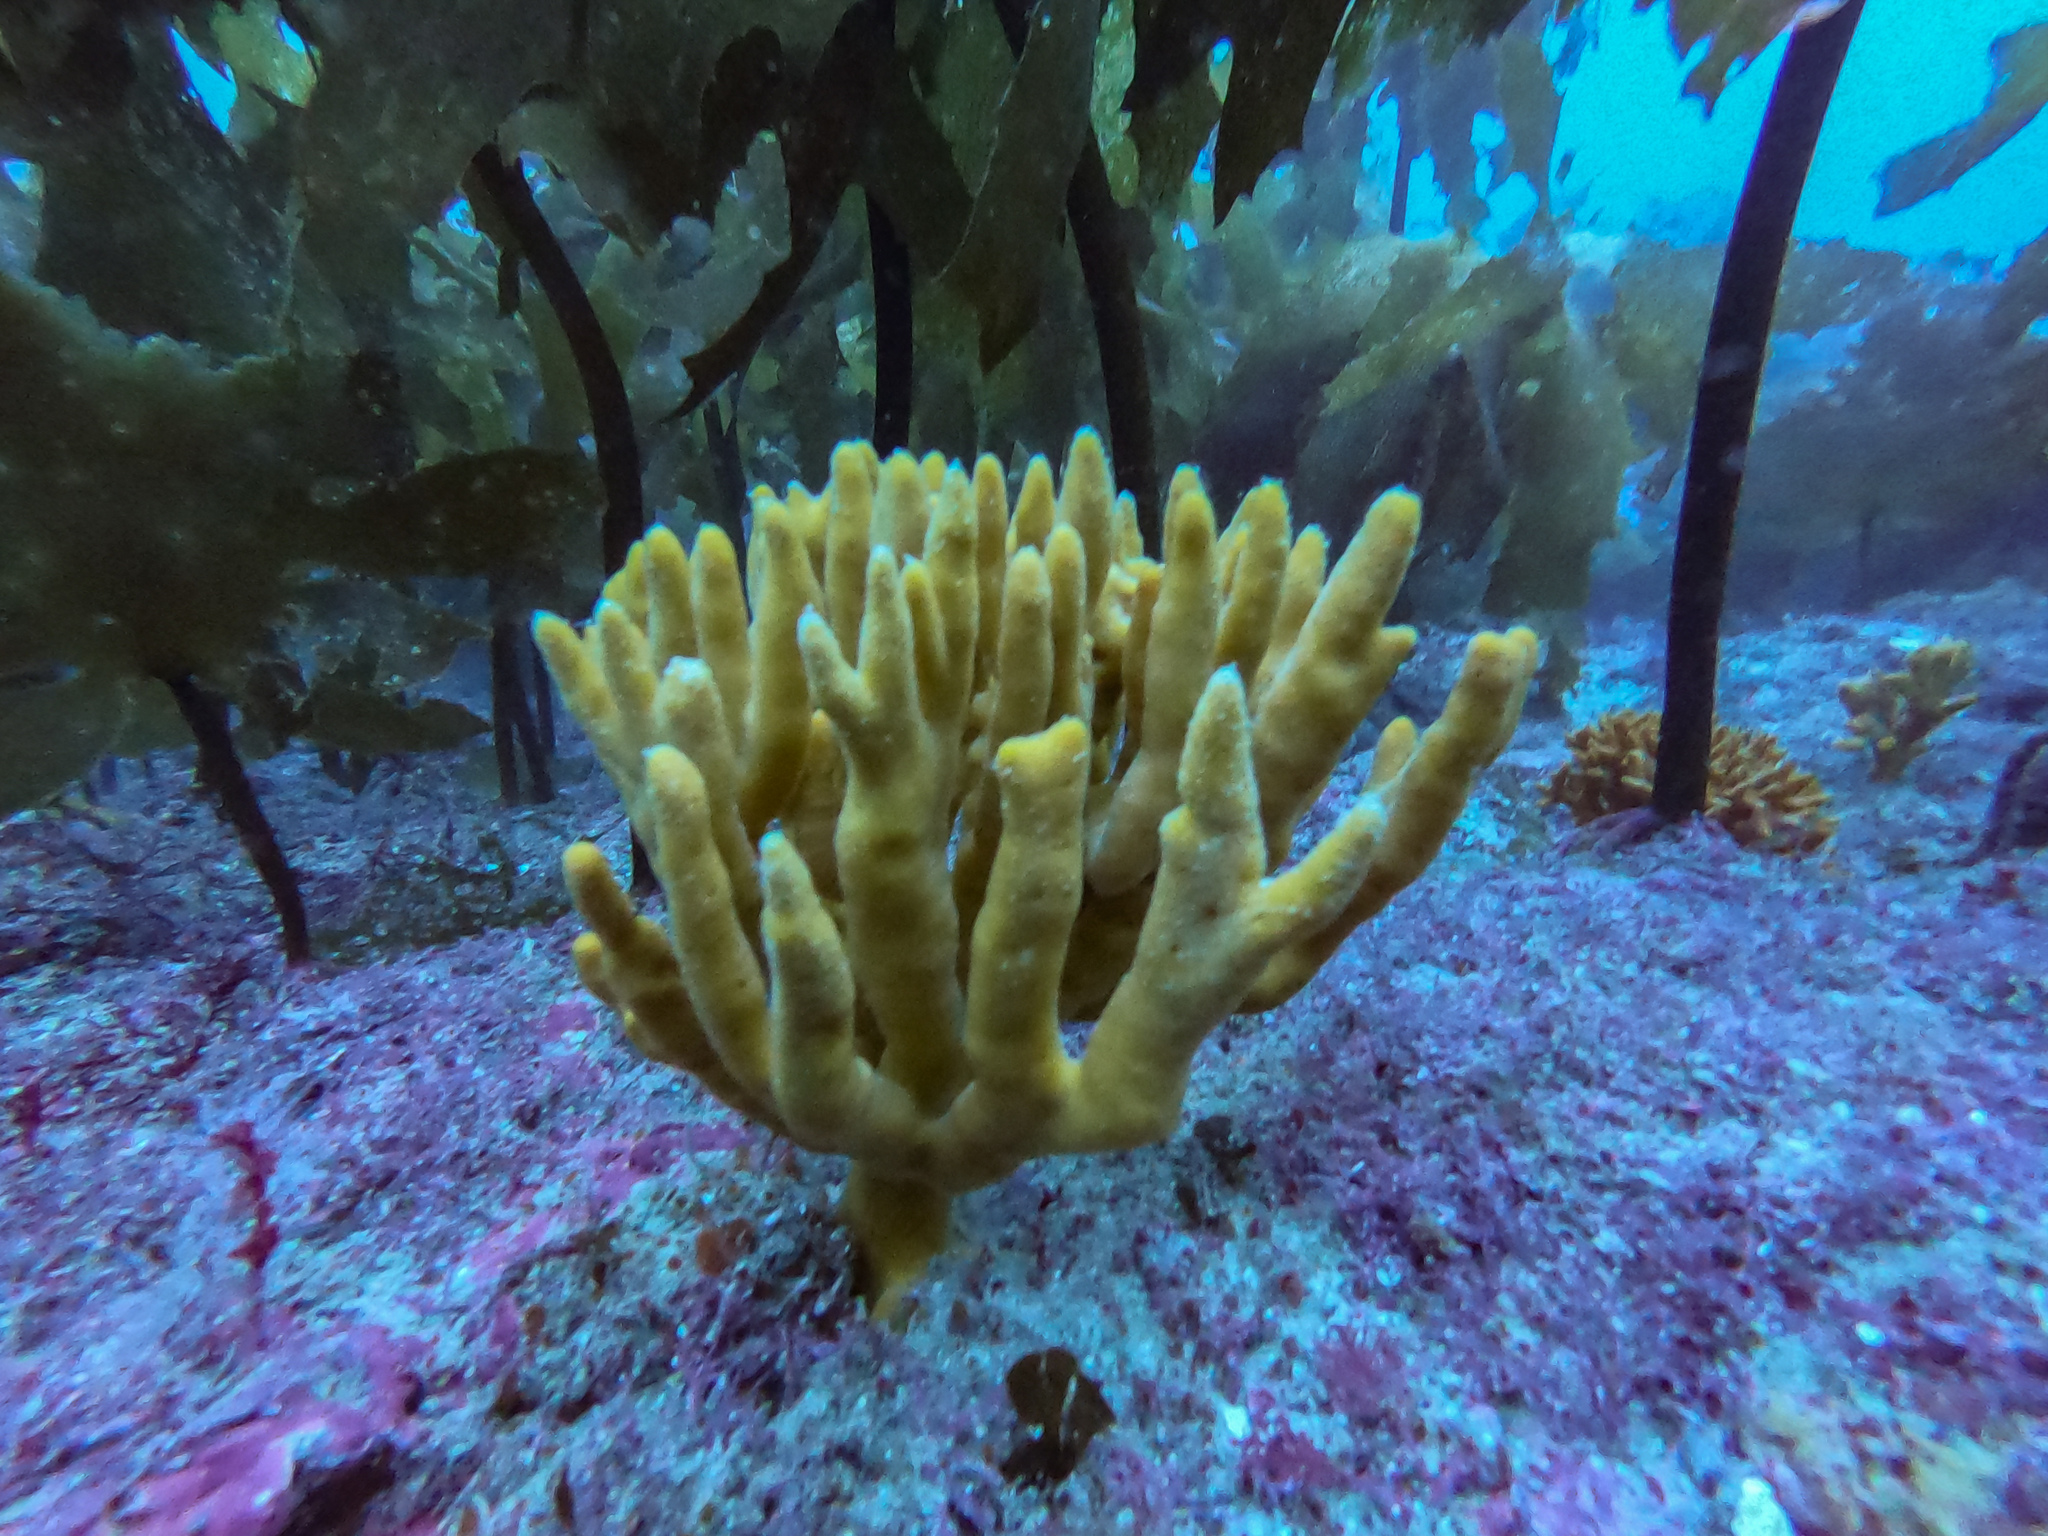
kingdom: Animalia
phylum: Porifera
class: Demospongiae
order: Axinellida
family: Raspailiidae
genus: Raspailia
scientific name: Raspailia topsenti
